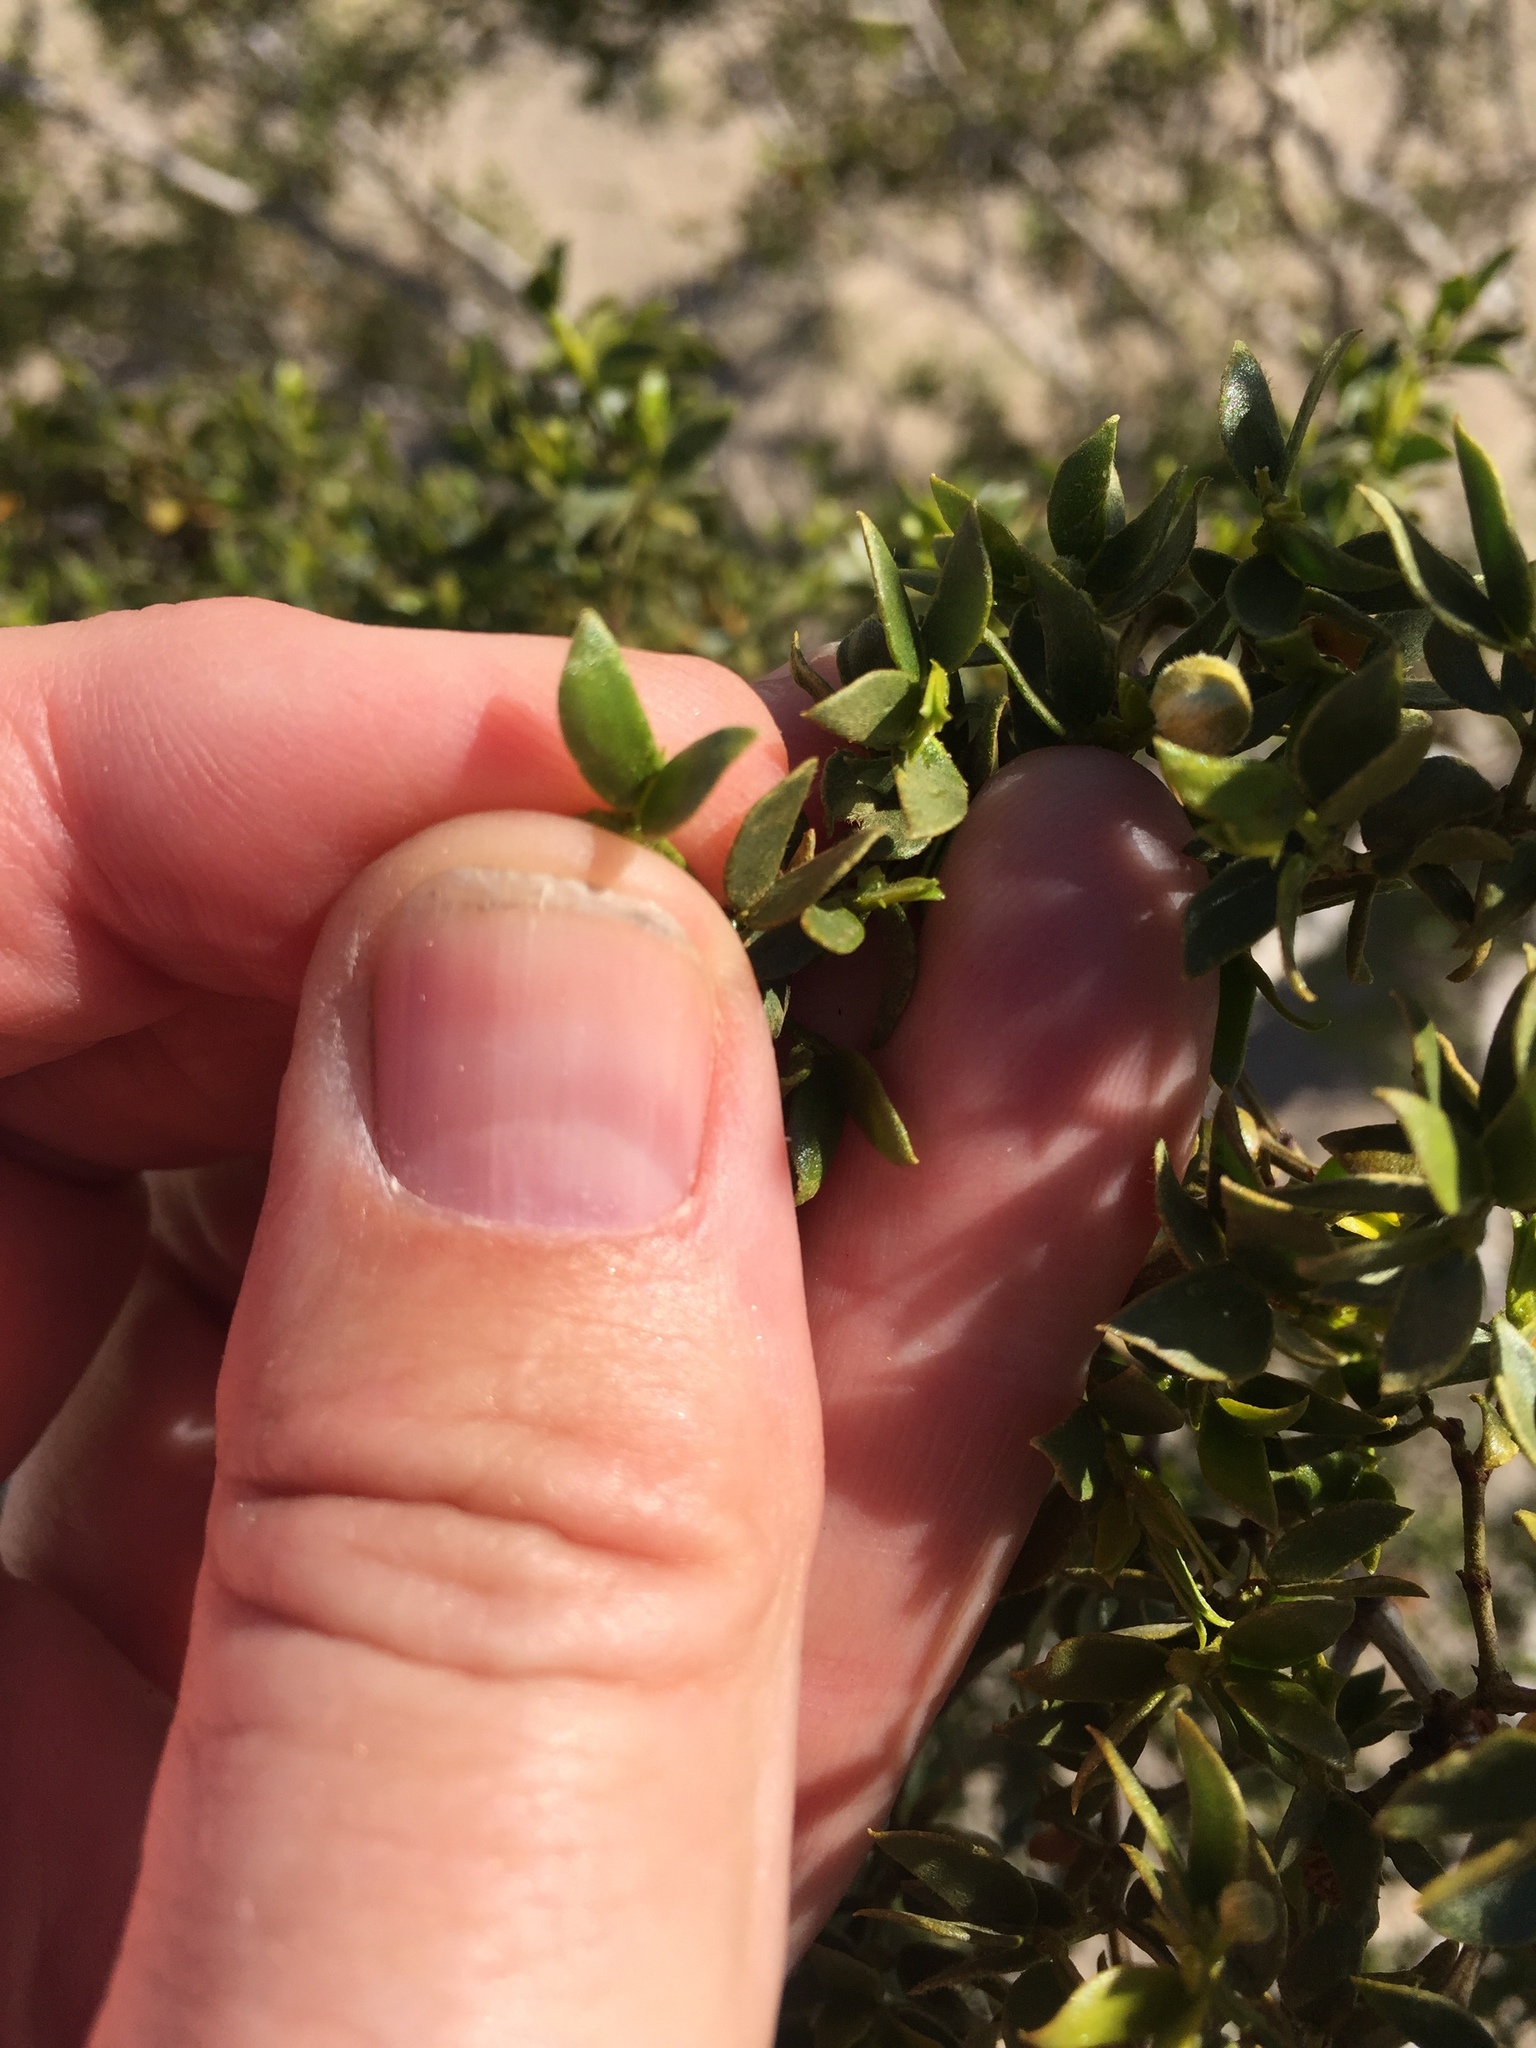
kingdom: Plantae
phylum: Tracheophyta
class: Magnoliopsida
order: Zygophyllales
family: Zygophyllaceae
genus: Larrea
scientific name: Larrea tridentata
